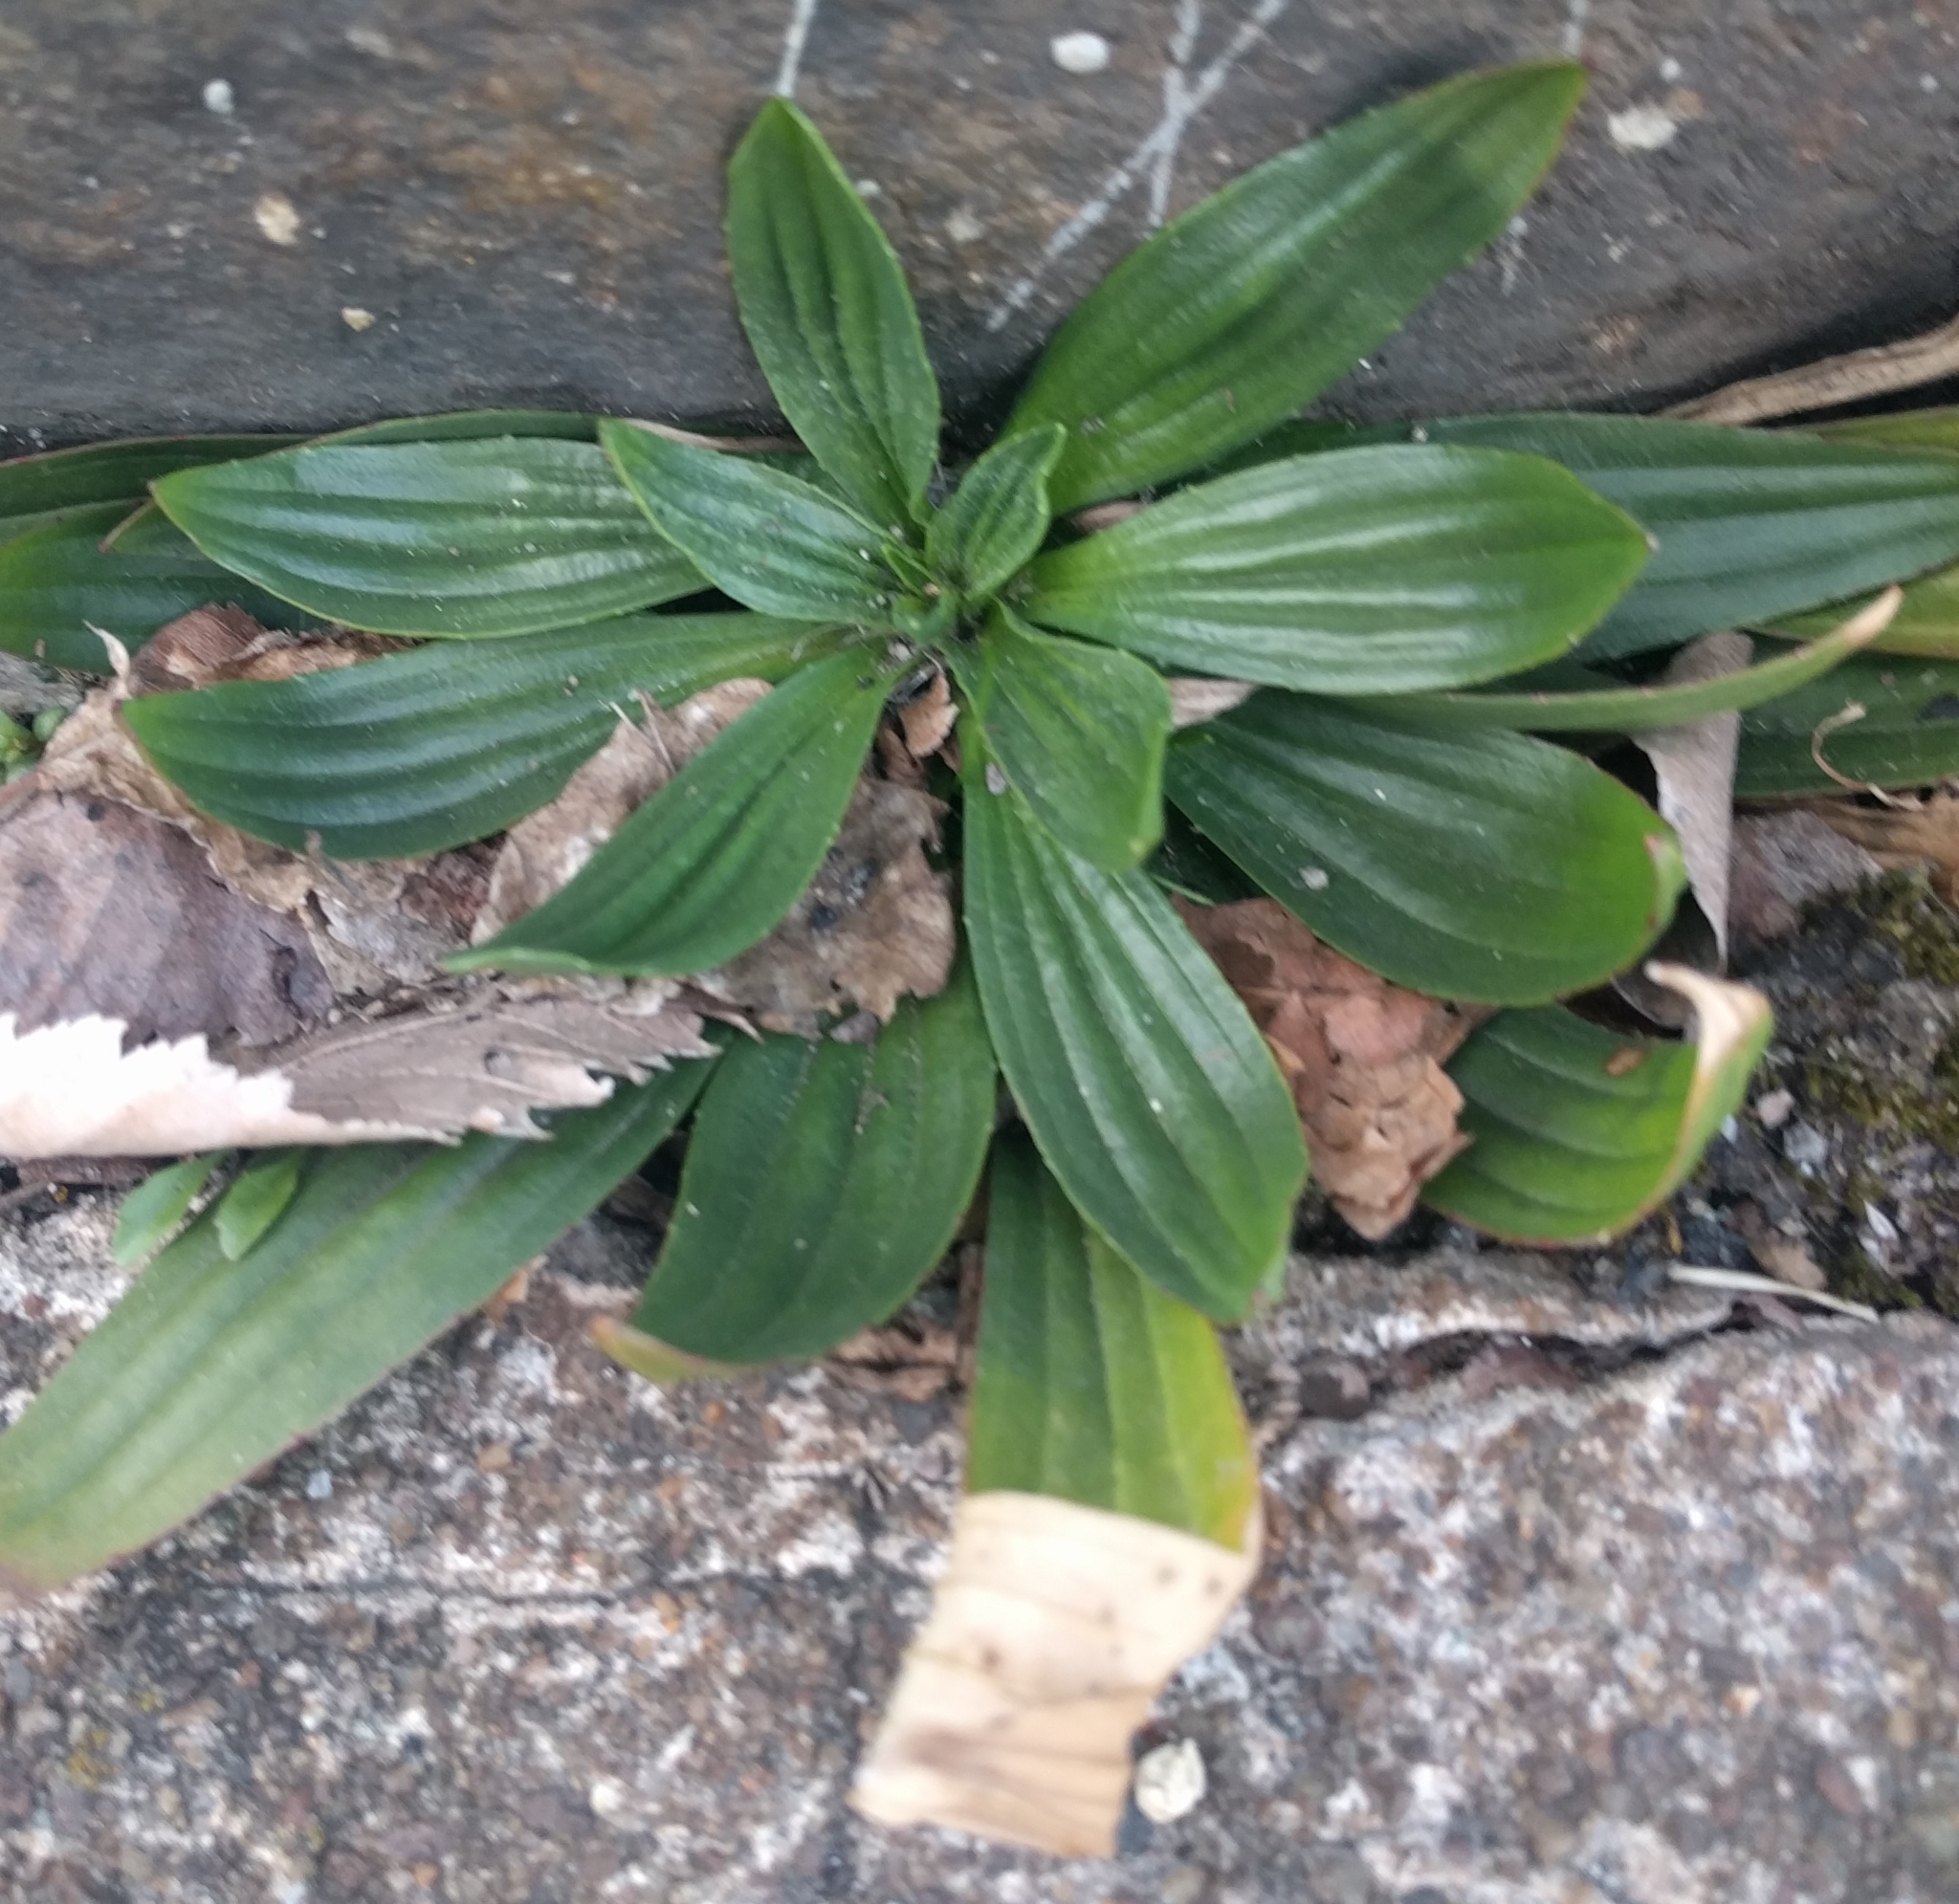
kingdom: Plantae
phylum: Tracheophyta
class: Magnoliopsida
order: Lamiales
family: Plantaginaceae
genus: Plantago
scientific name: Plantago lanceolata
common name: Ribwort plantain
